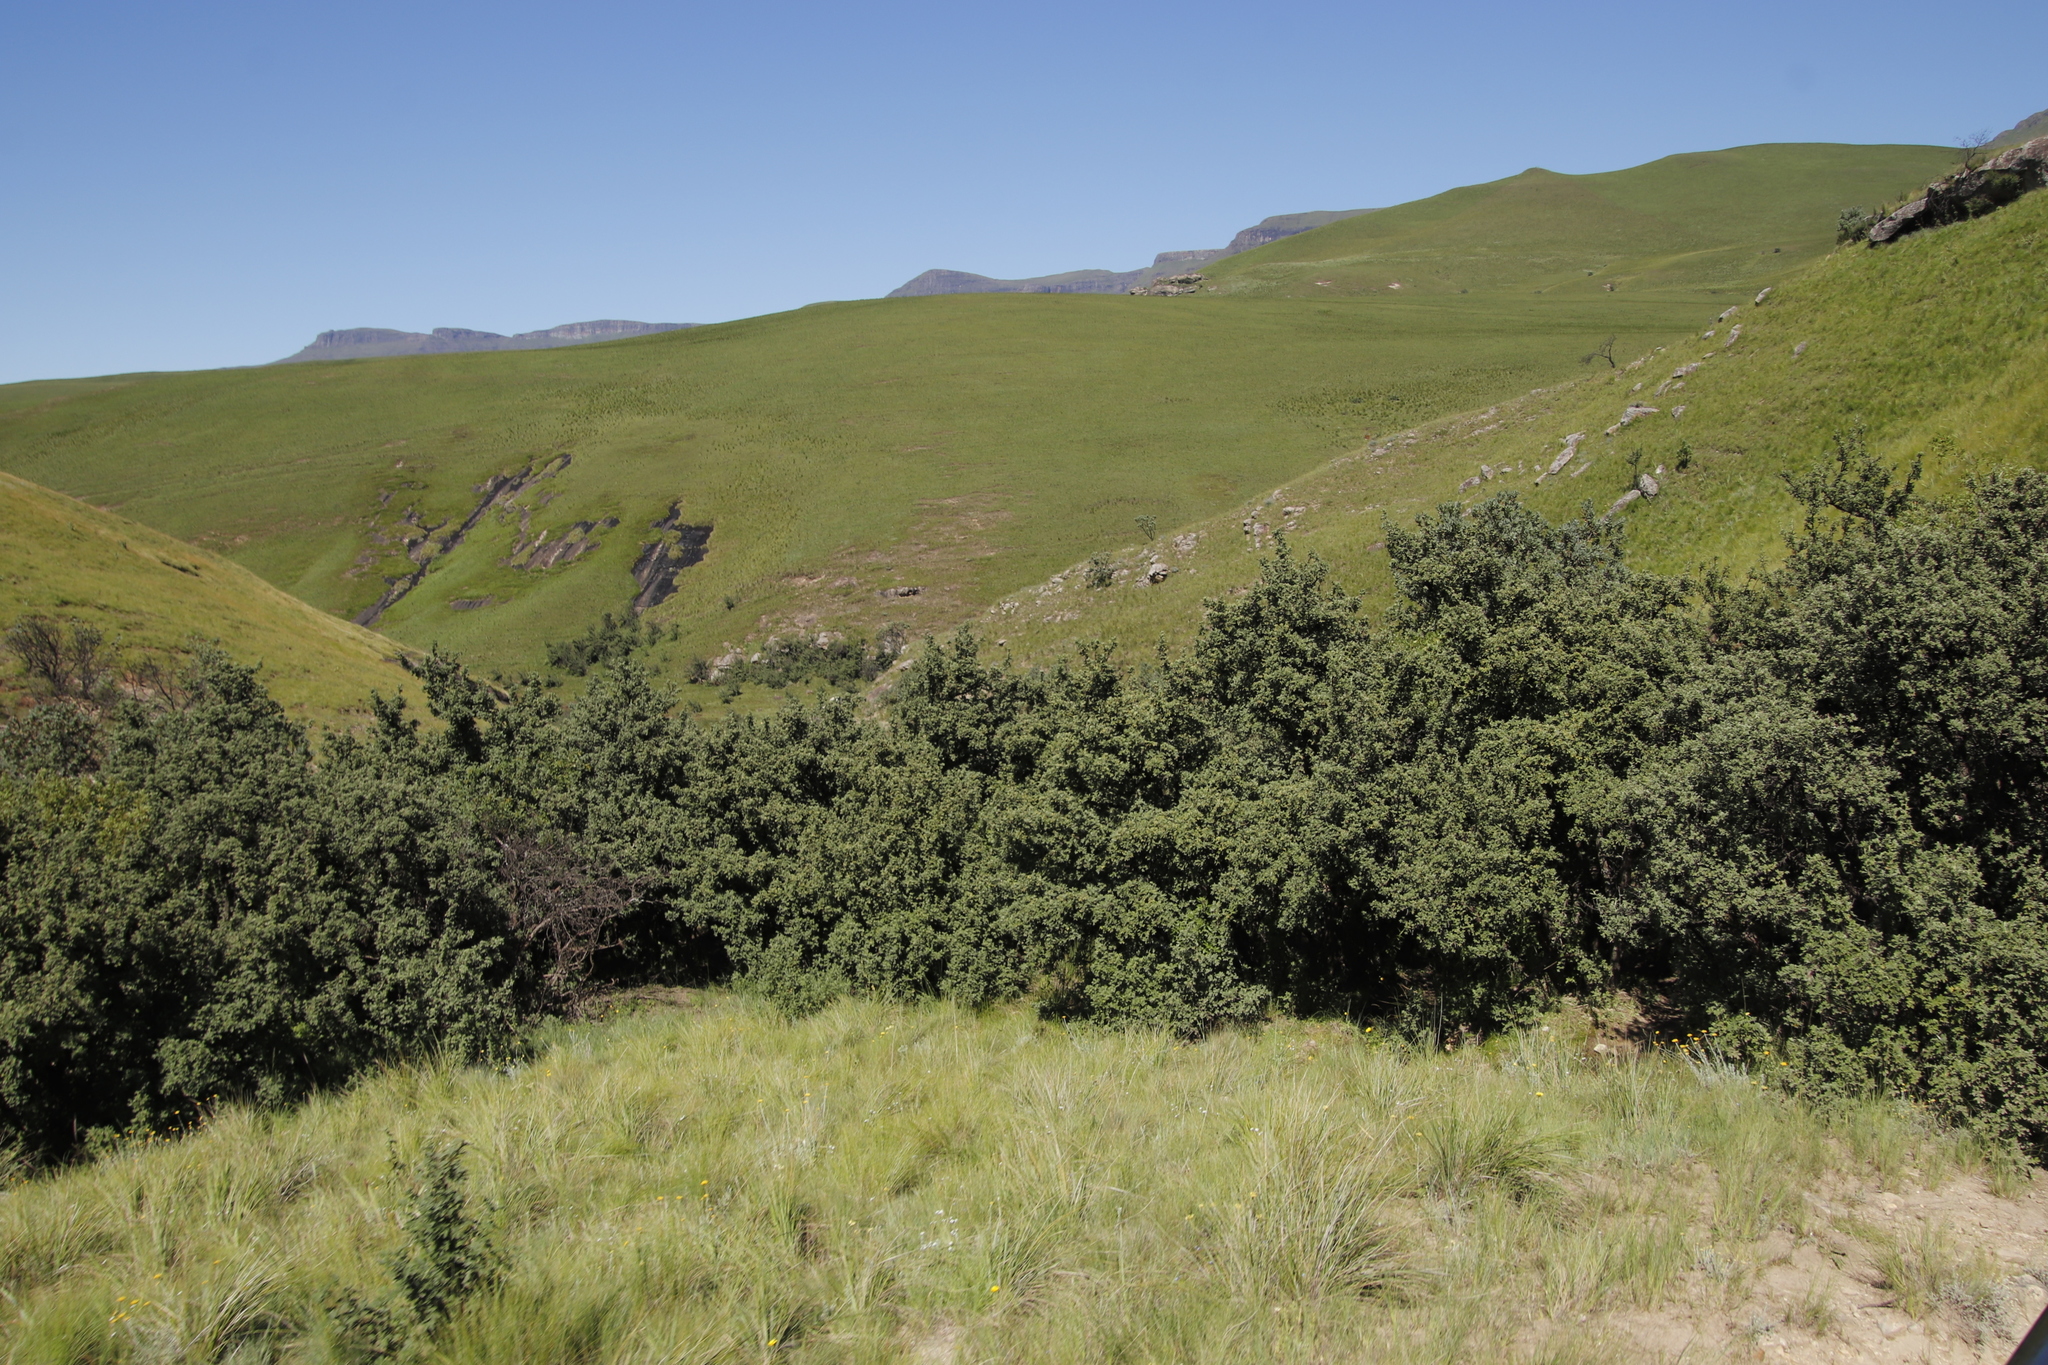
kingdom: Plantae
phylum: Tracheophyta
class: Magnoliopsida
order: Rosales
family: Rosaceae
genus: Leucosidea
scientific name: Leucosidea sericea
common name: Oldwood
